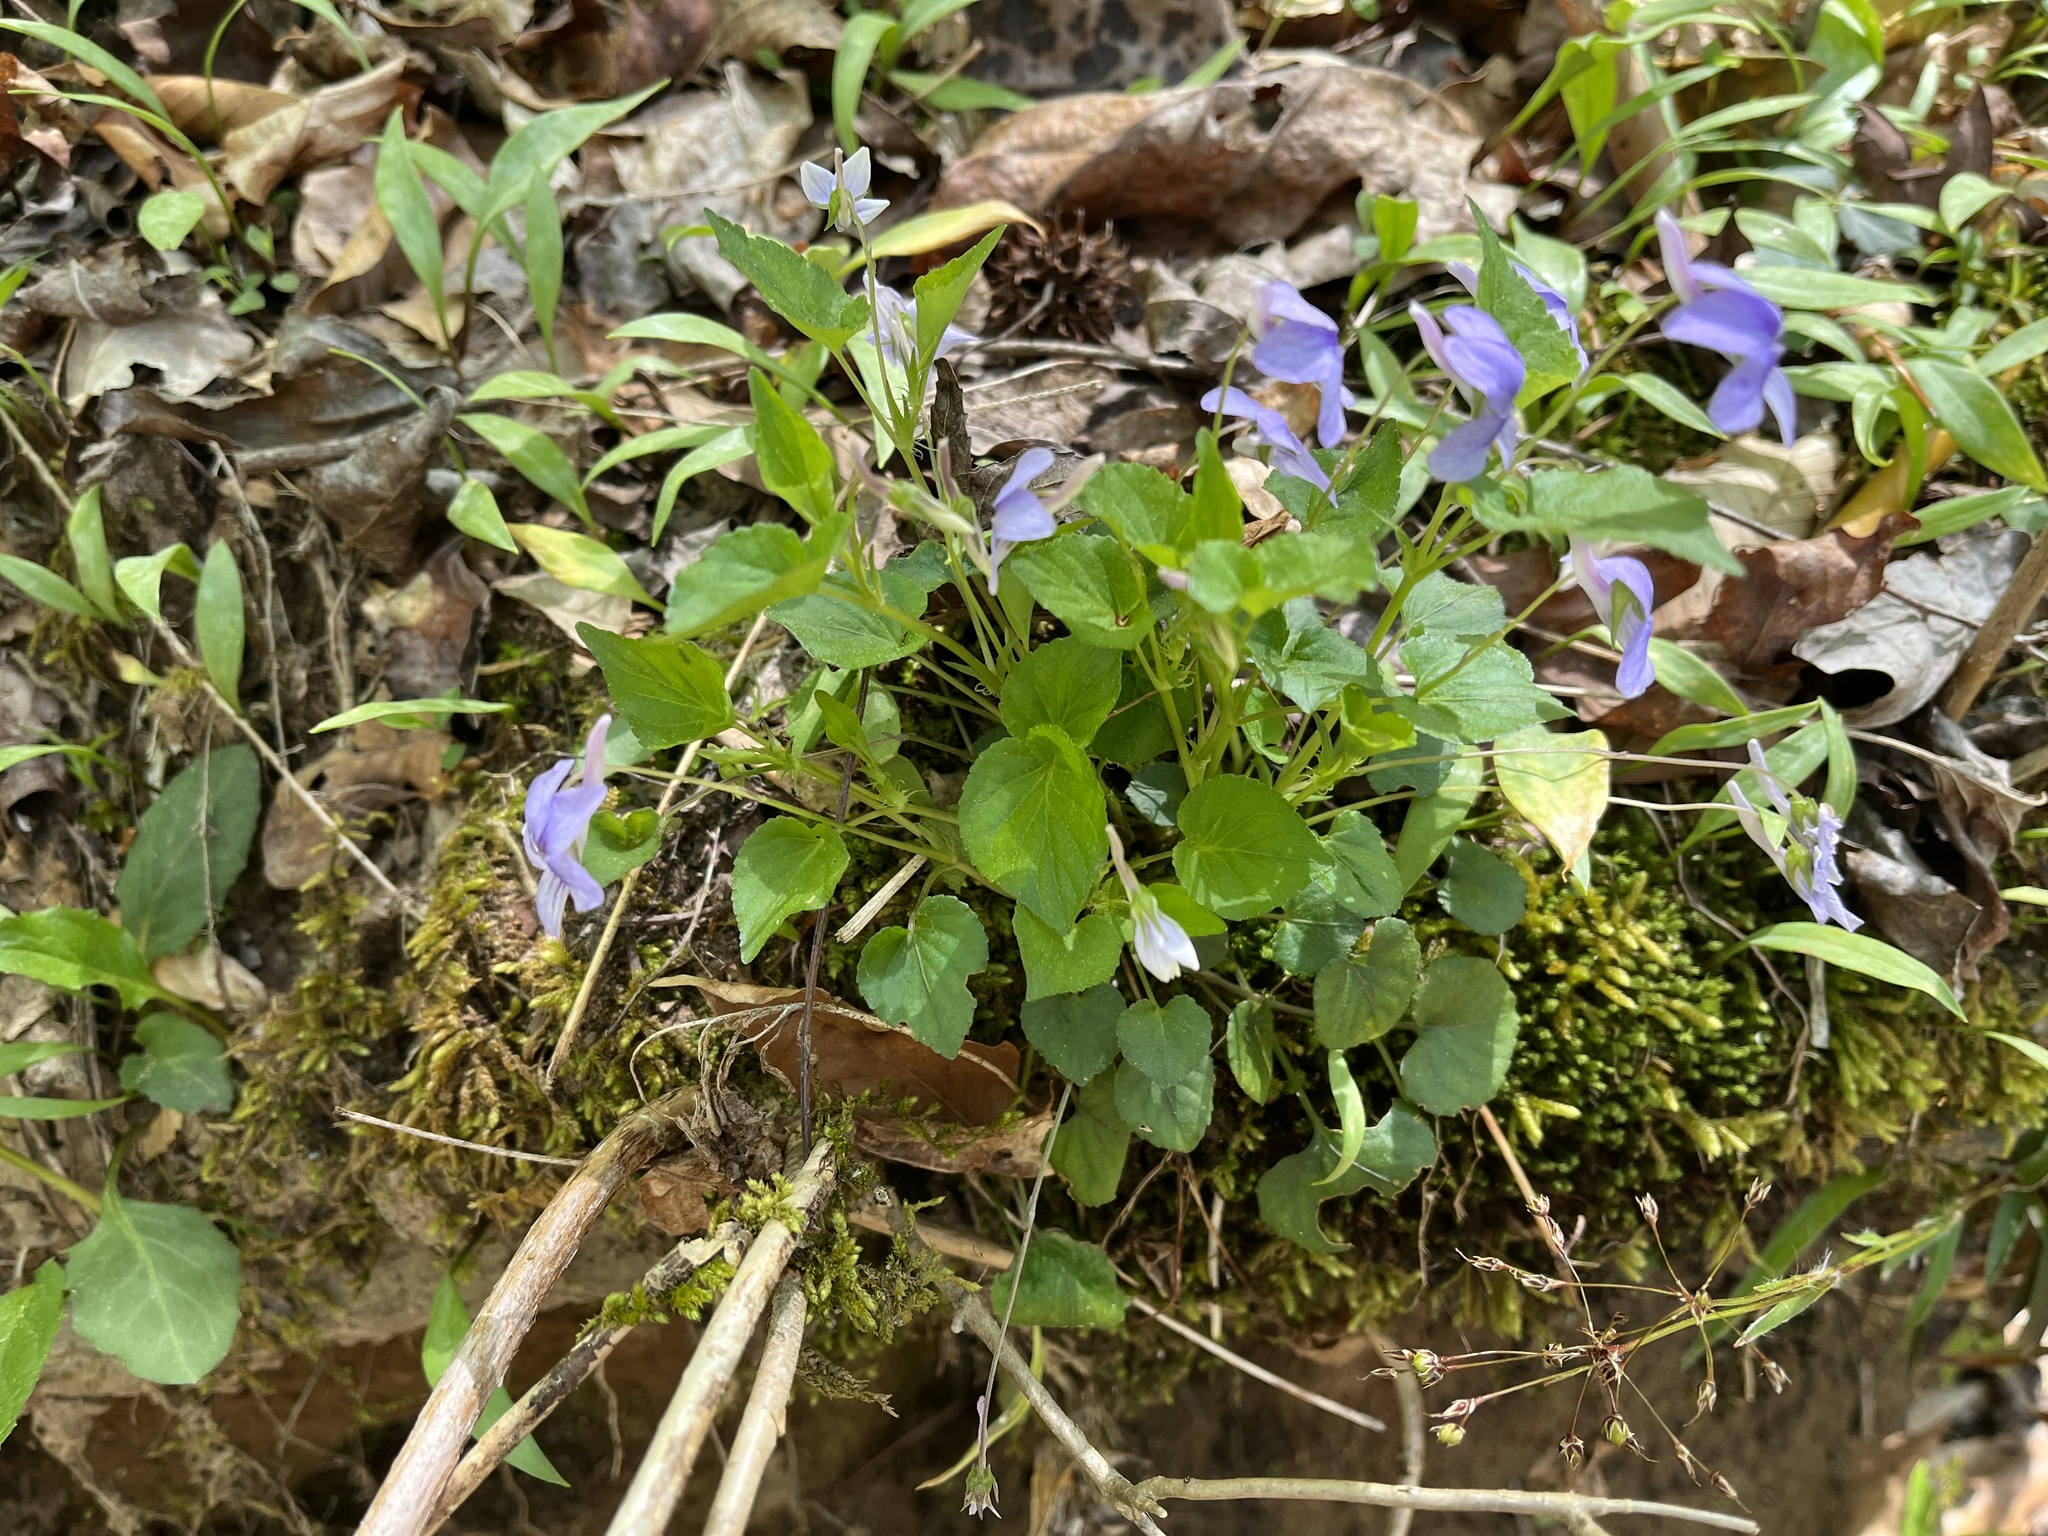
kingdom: Plantae
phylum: Tracheophyta
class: Magnoliopsida
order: Malpighiales
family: Violaceae
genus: Viola
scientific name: Viola rostrata
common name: Long-spur violet
